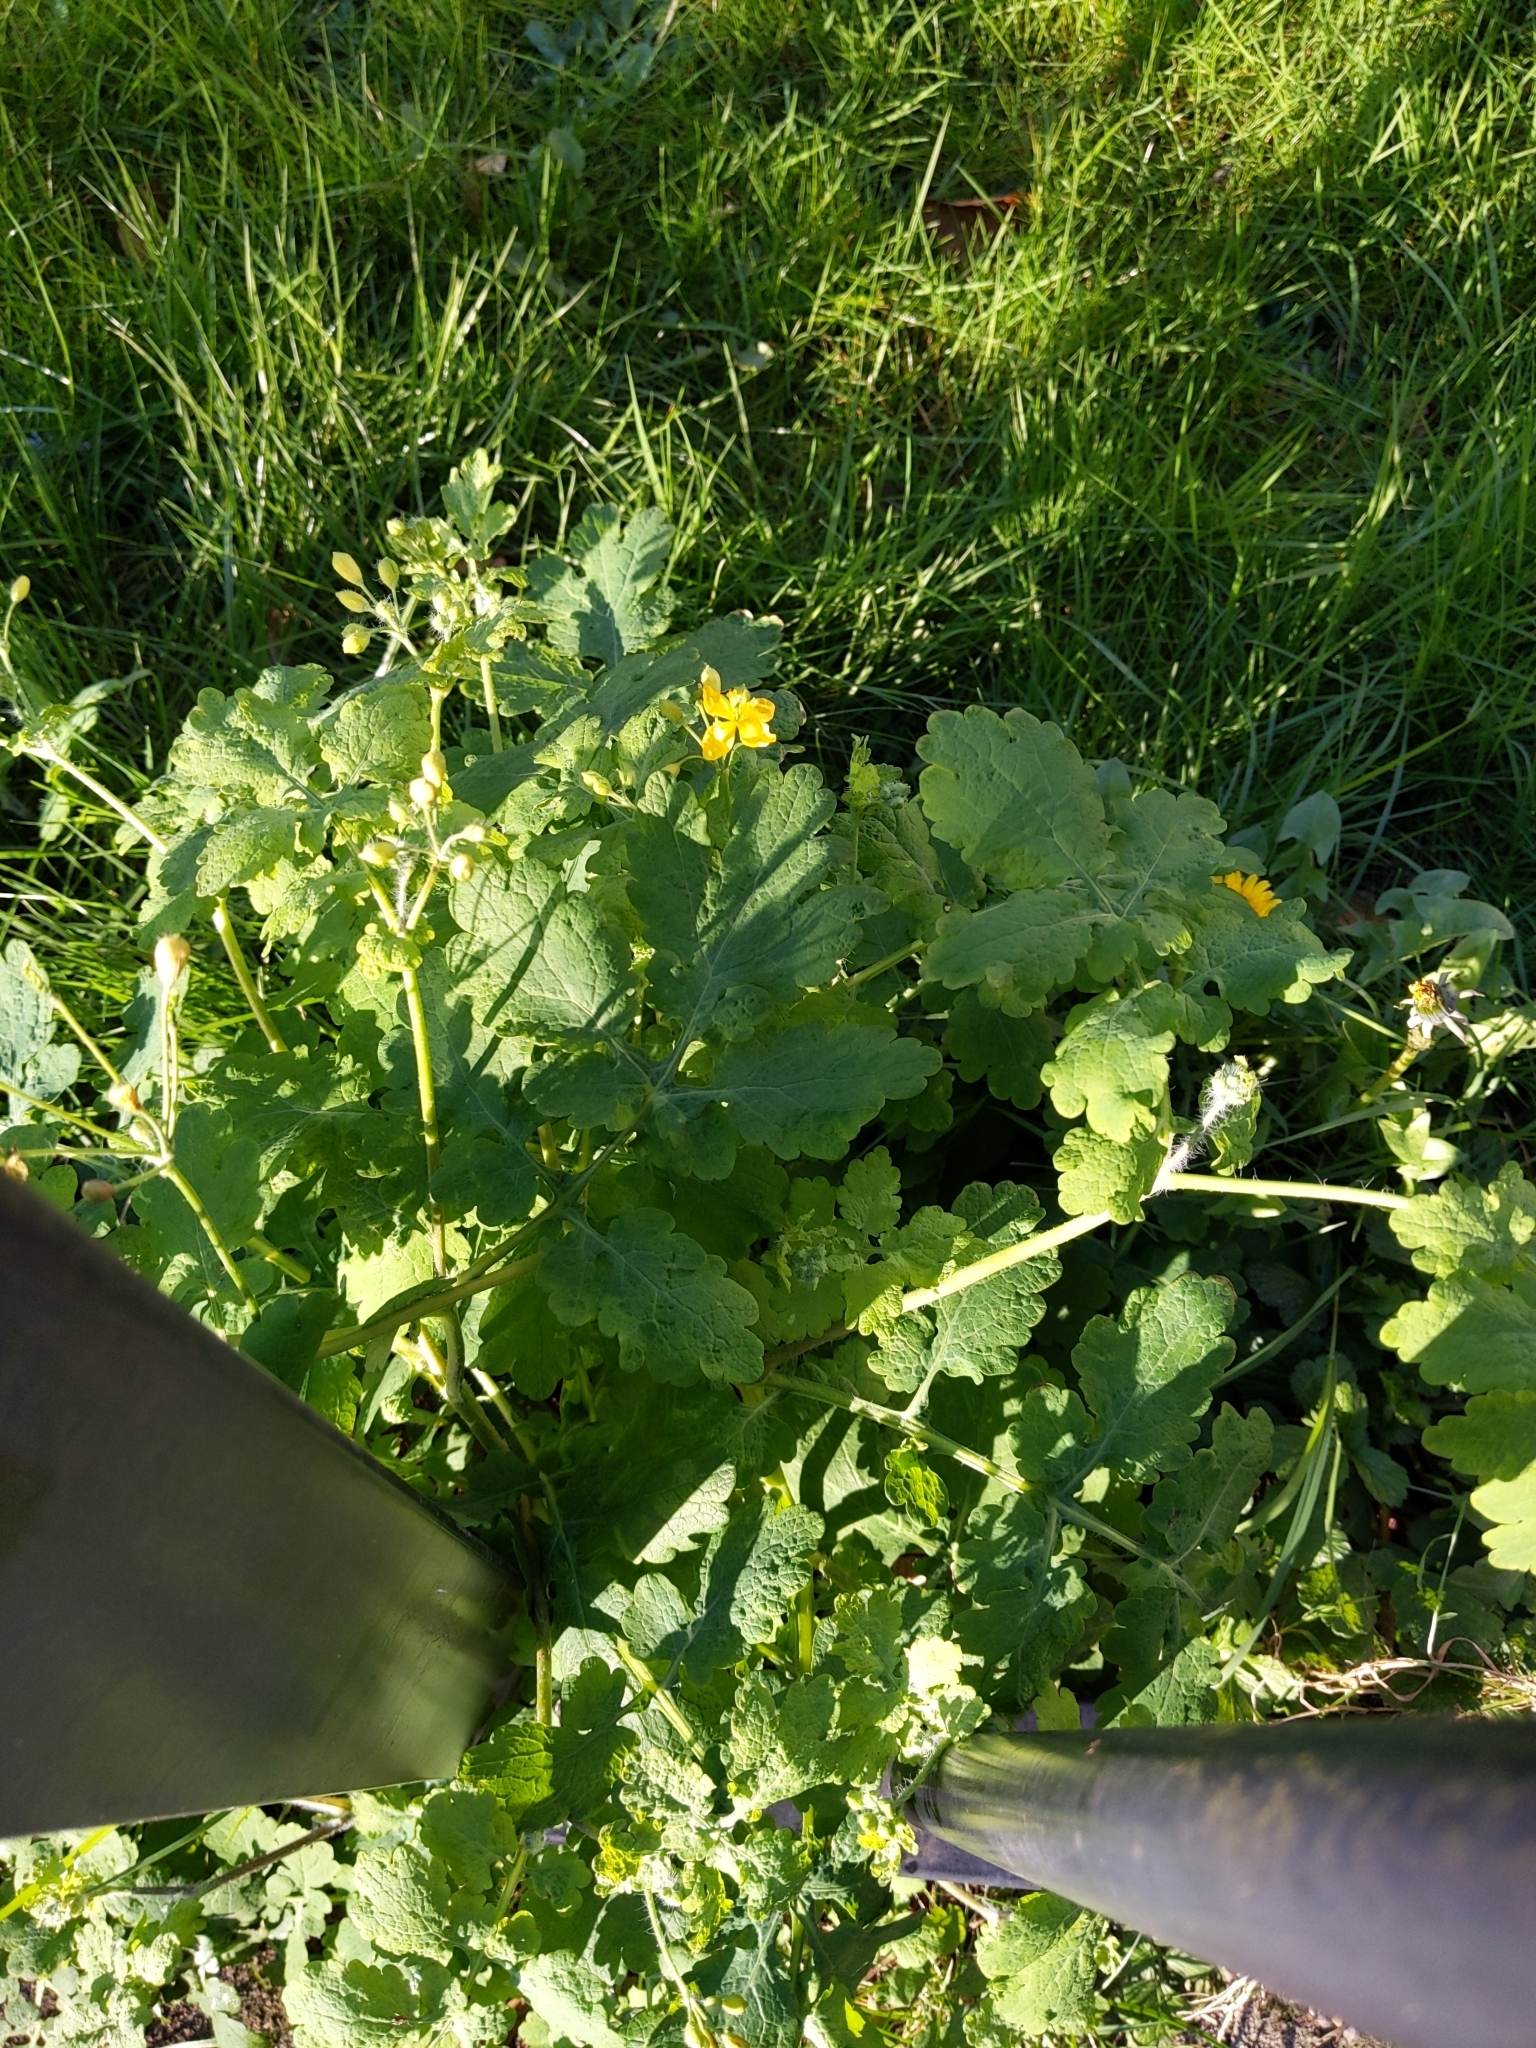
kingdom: Plantae
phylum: Tracheophyta
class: Magnoliopsida
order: Ranunculales
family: Papaveraceae
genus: Chelidonium
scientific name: Chelidonium majus
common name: Greater celandine
